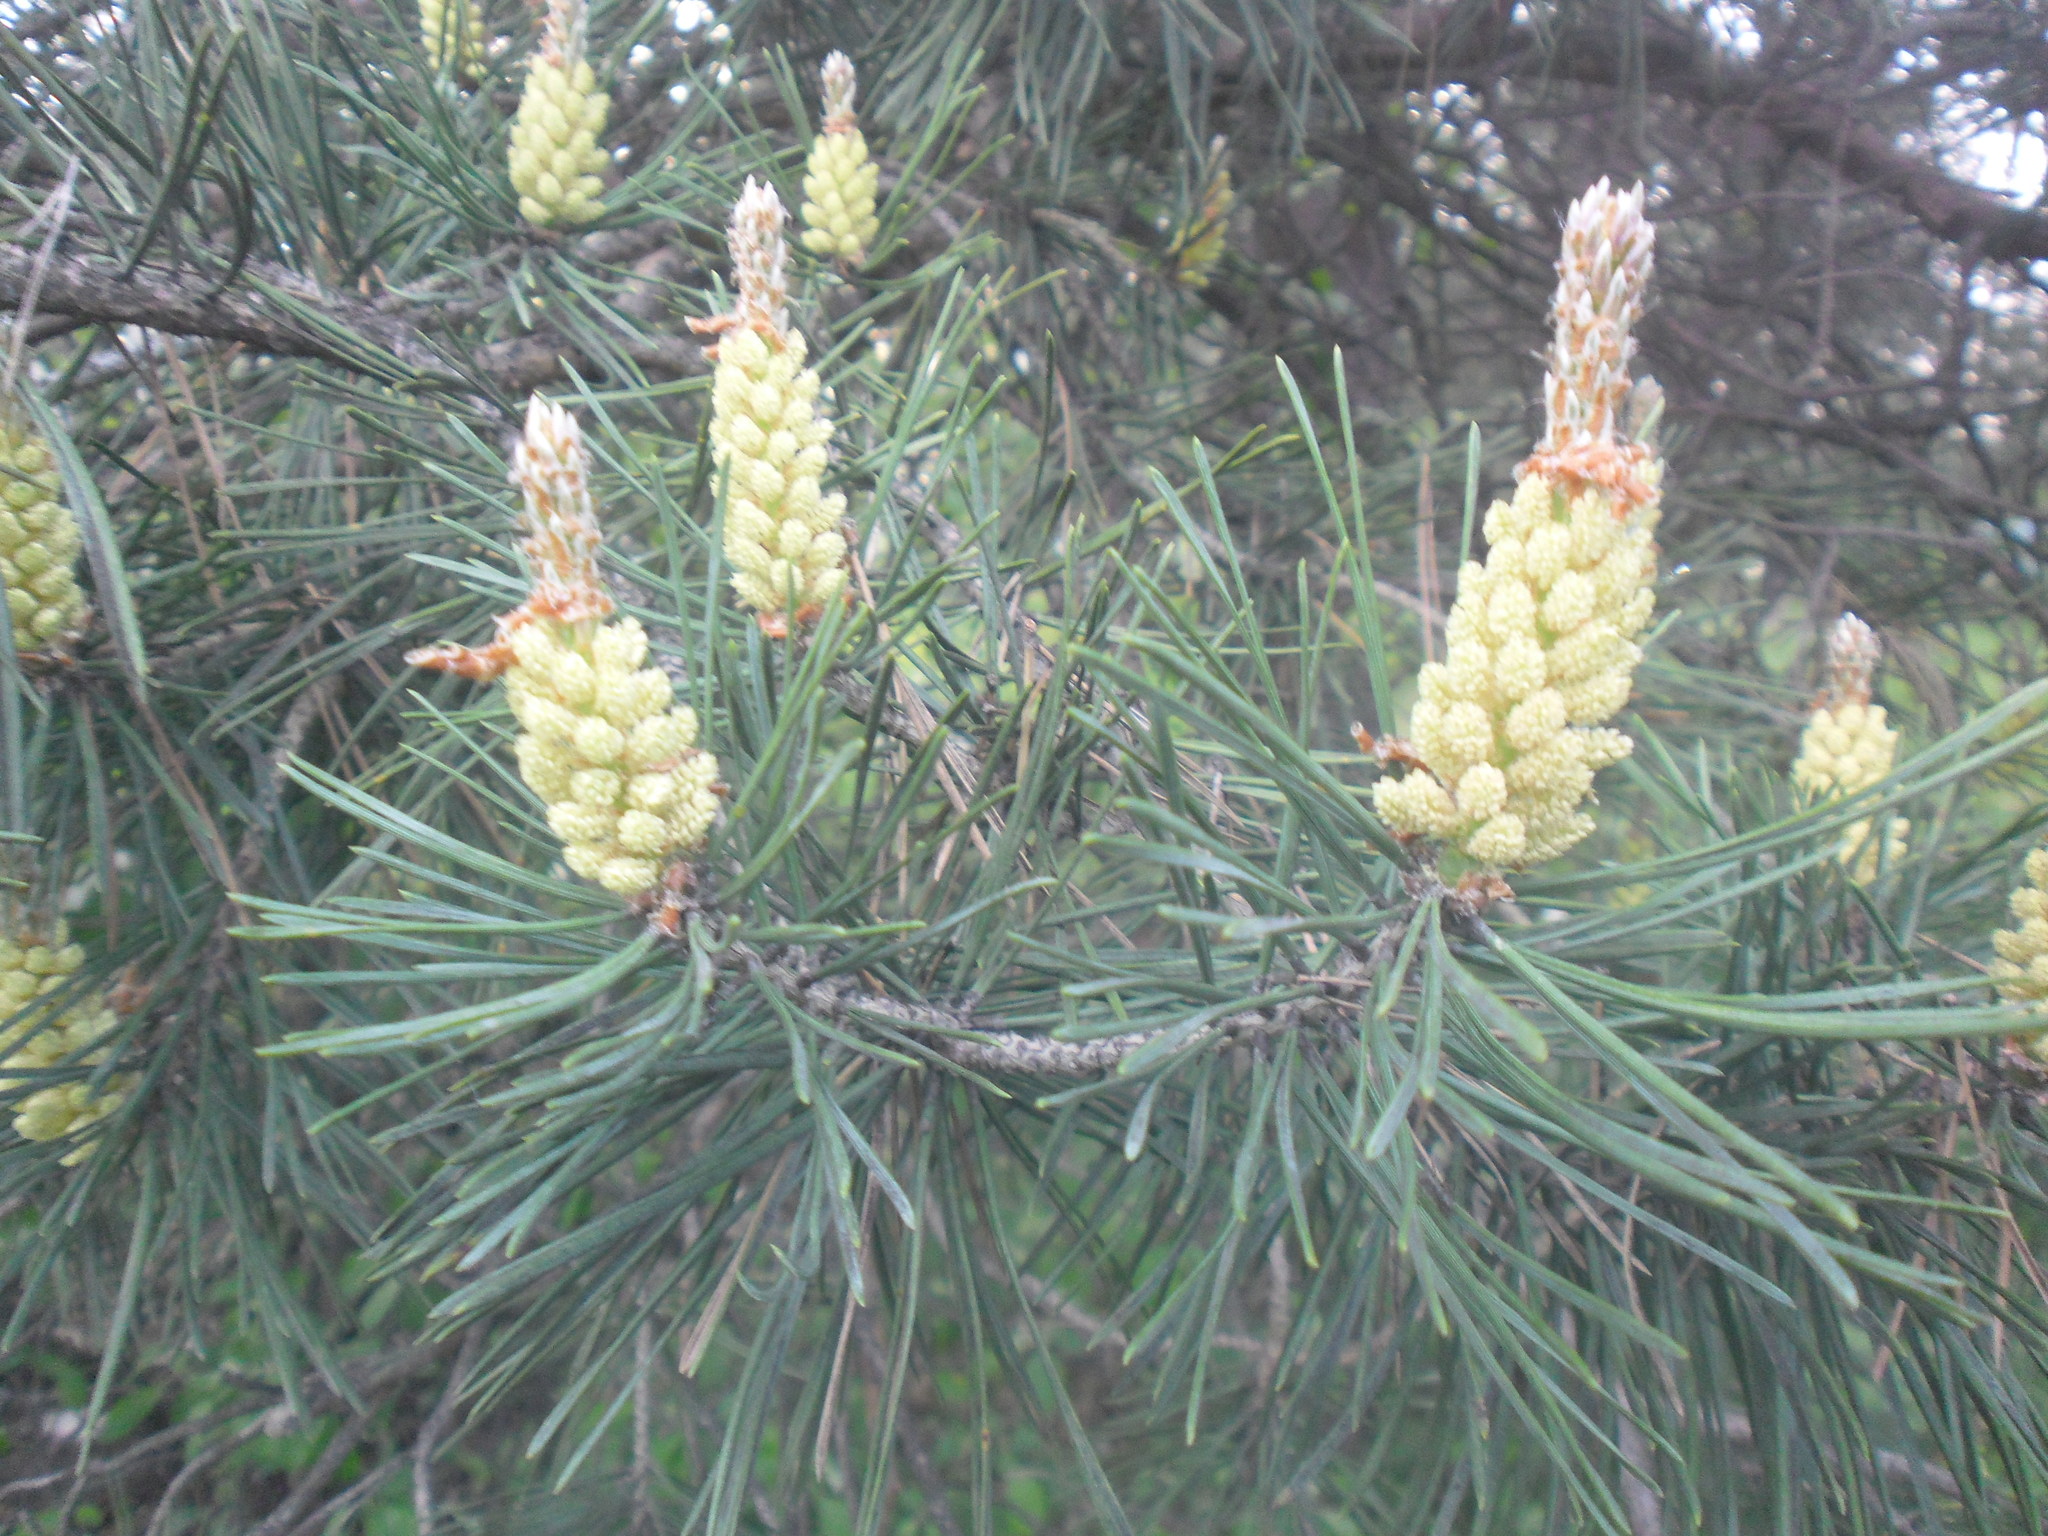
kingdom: Plantae
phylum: Tracheophyta
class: Pinopsida
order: Pinales
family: Pinaceae
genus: Pinus
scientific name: Pinus sylvestris
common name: Scots pine
